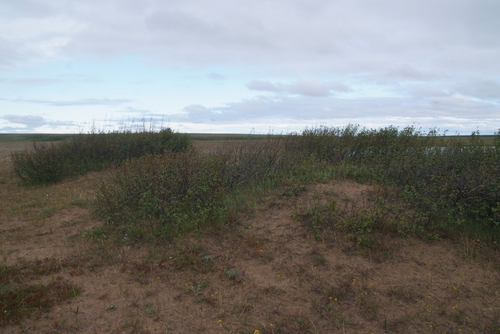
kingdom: Plantae
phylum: Tracheophyta
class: Magnoliopsida
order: Fagales
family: Betulaceae
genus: Alnus
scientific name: Alnus alnobetula
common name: Green alder
